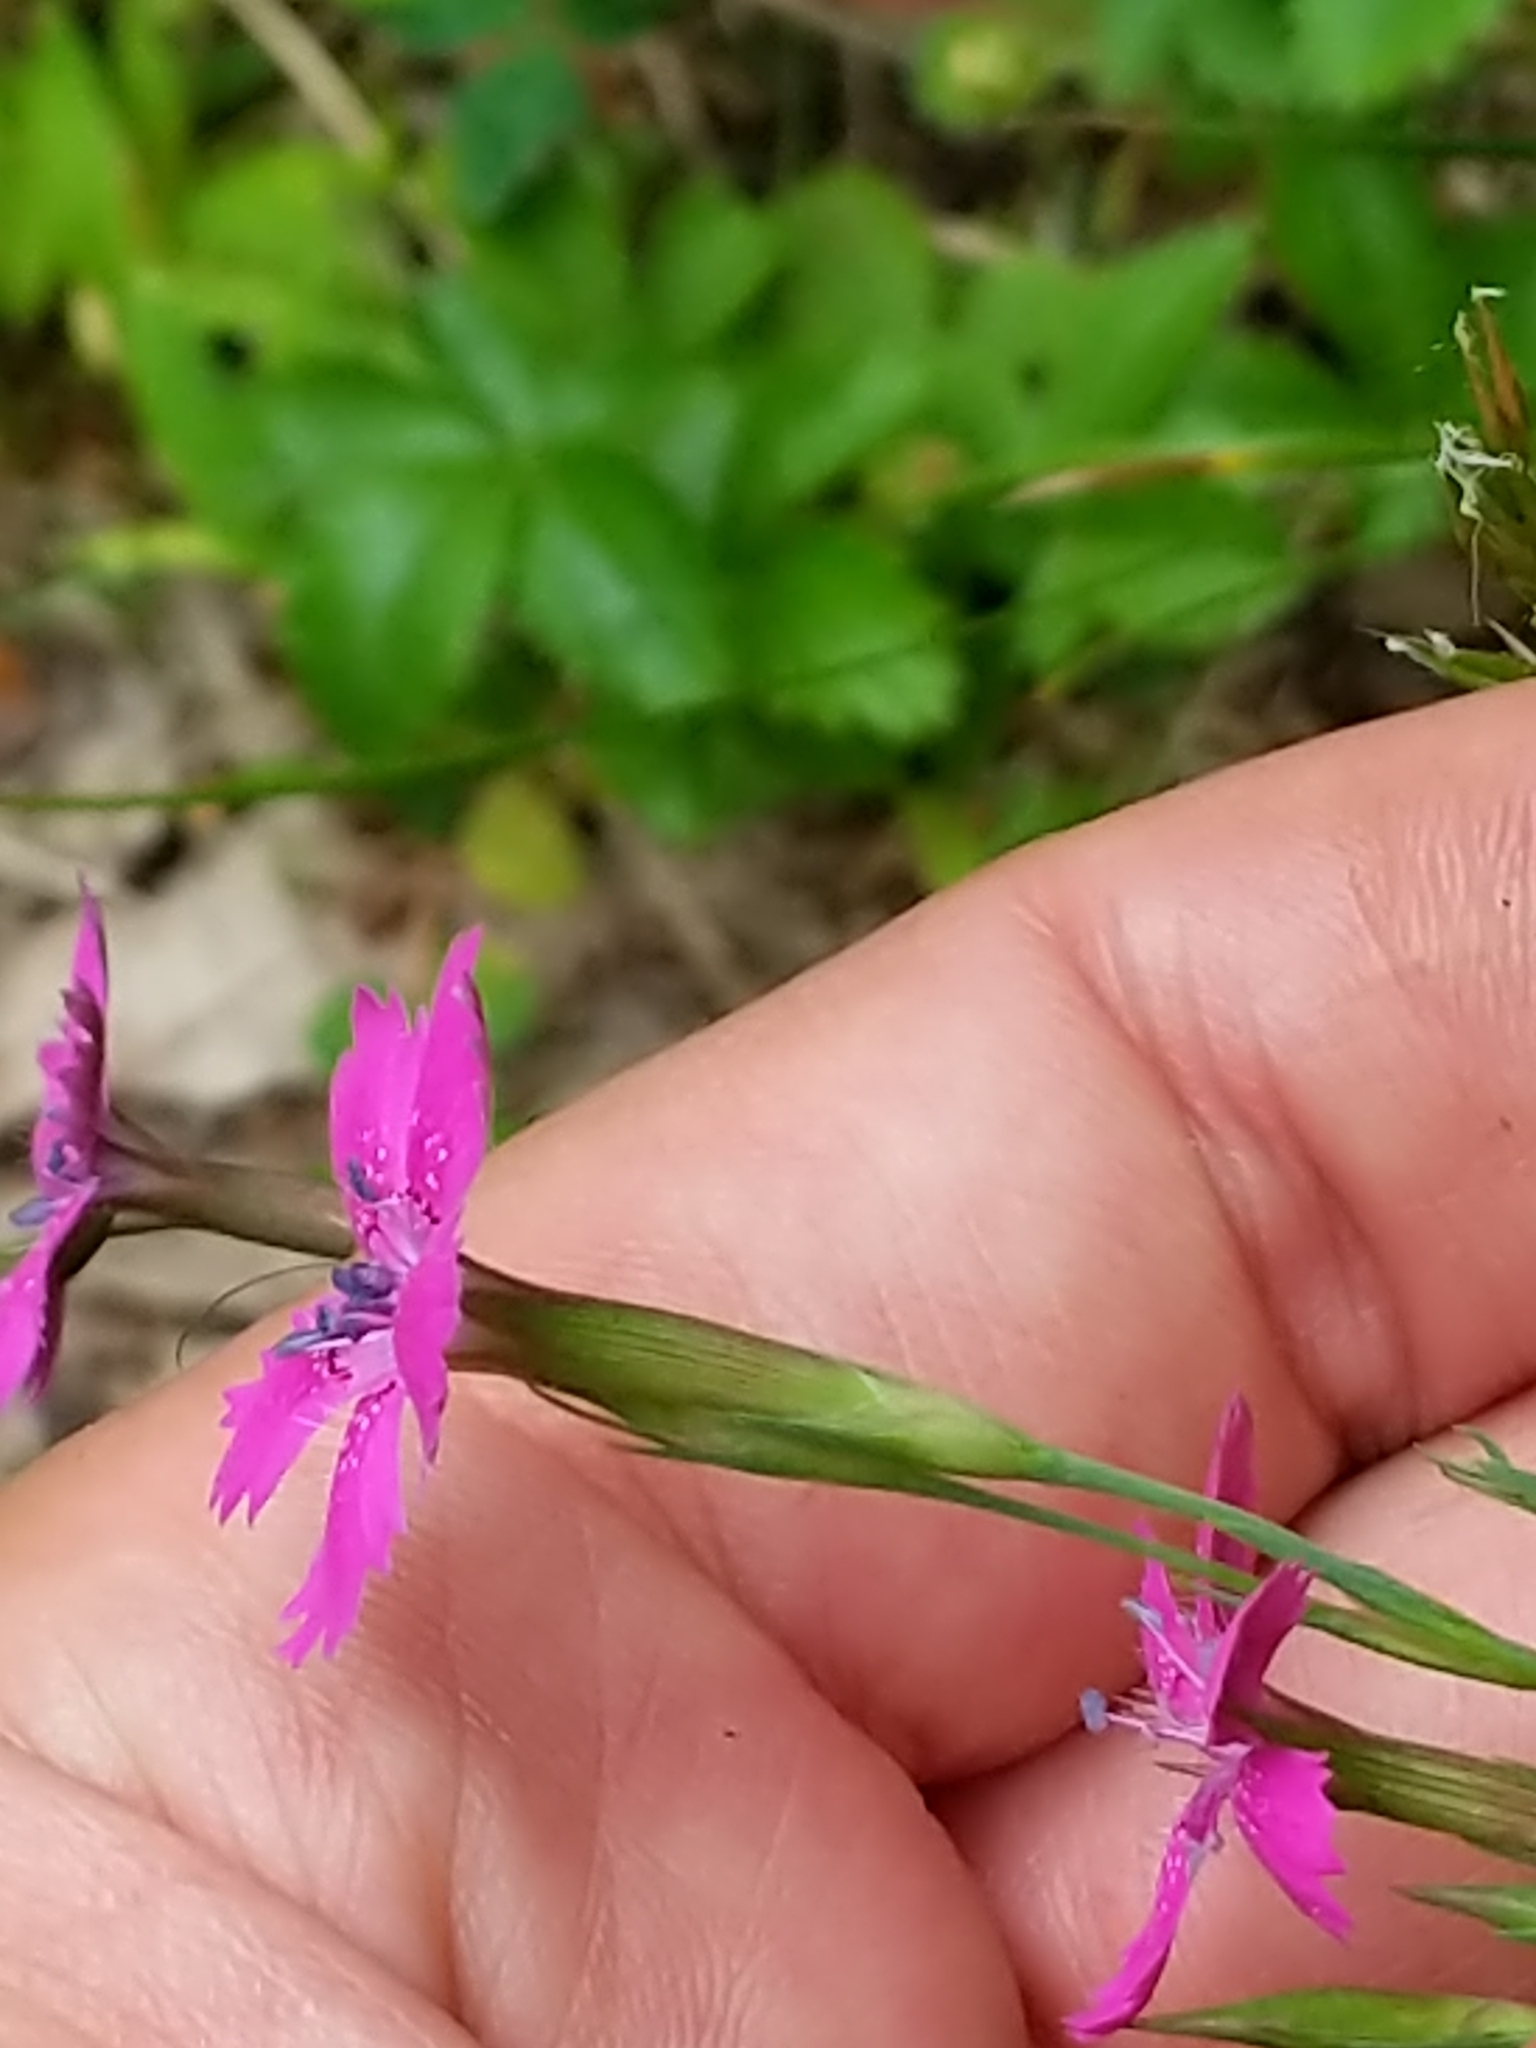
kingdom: Plantae
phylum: Tracheophyta
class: Magnoliopsida
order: Caryophyllales
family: Caryophyllaceae
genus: Dianthus
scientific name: Dianthus deltoides
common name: Maiden pink
